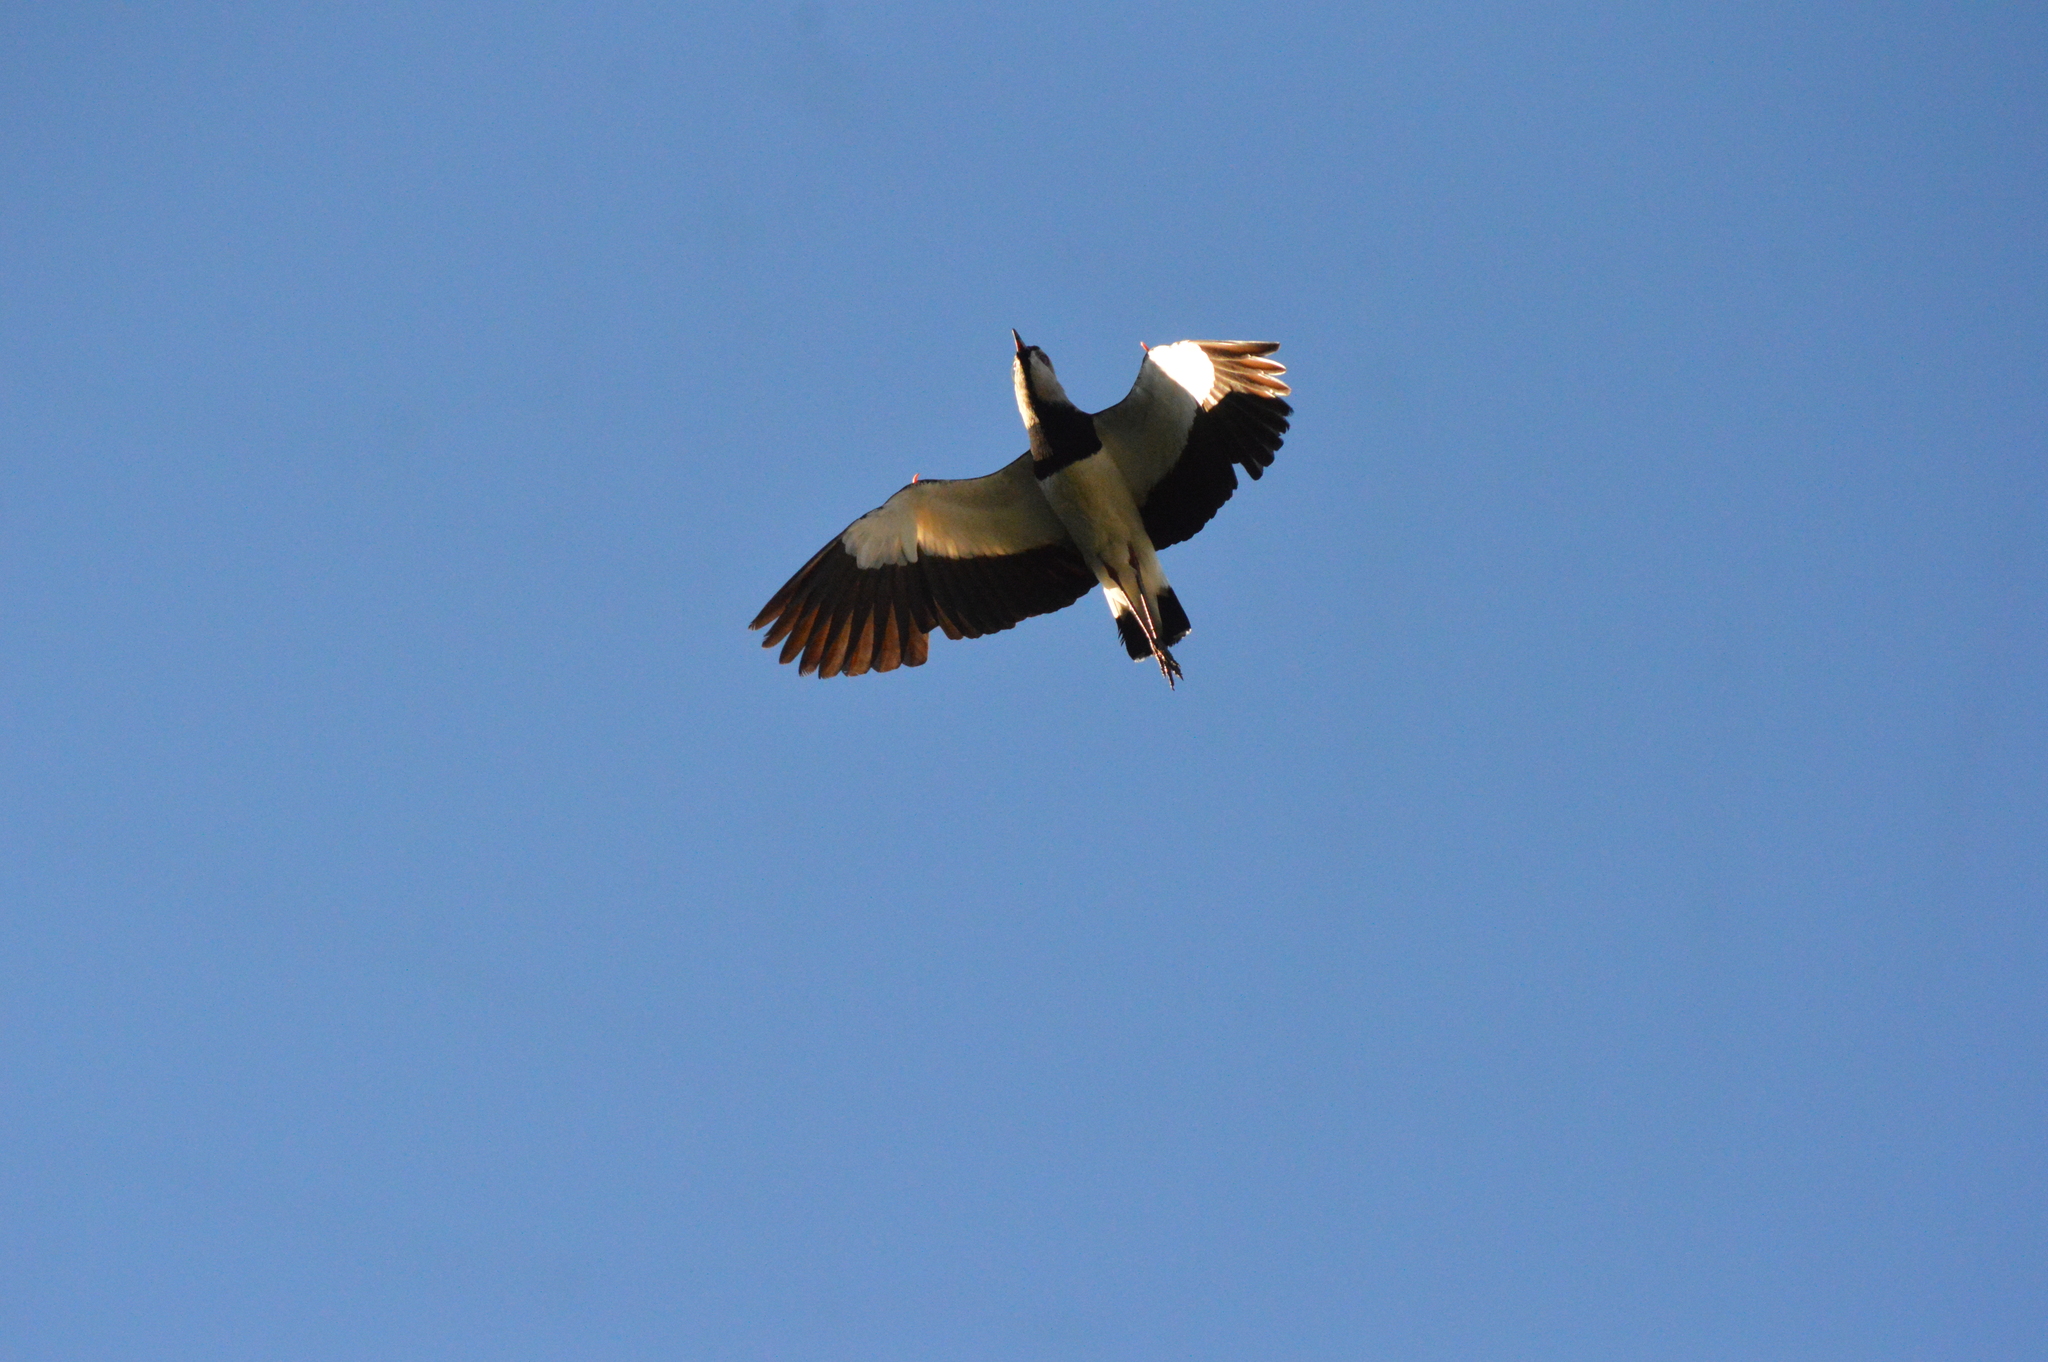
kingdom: Animalia
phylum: Chordata
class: Aves
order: Charadriiformes
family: Charadriidae
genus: Vanellus
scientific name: Vanellus chilensis
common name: Southern lapwing
